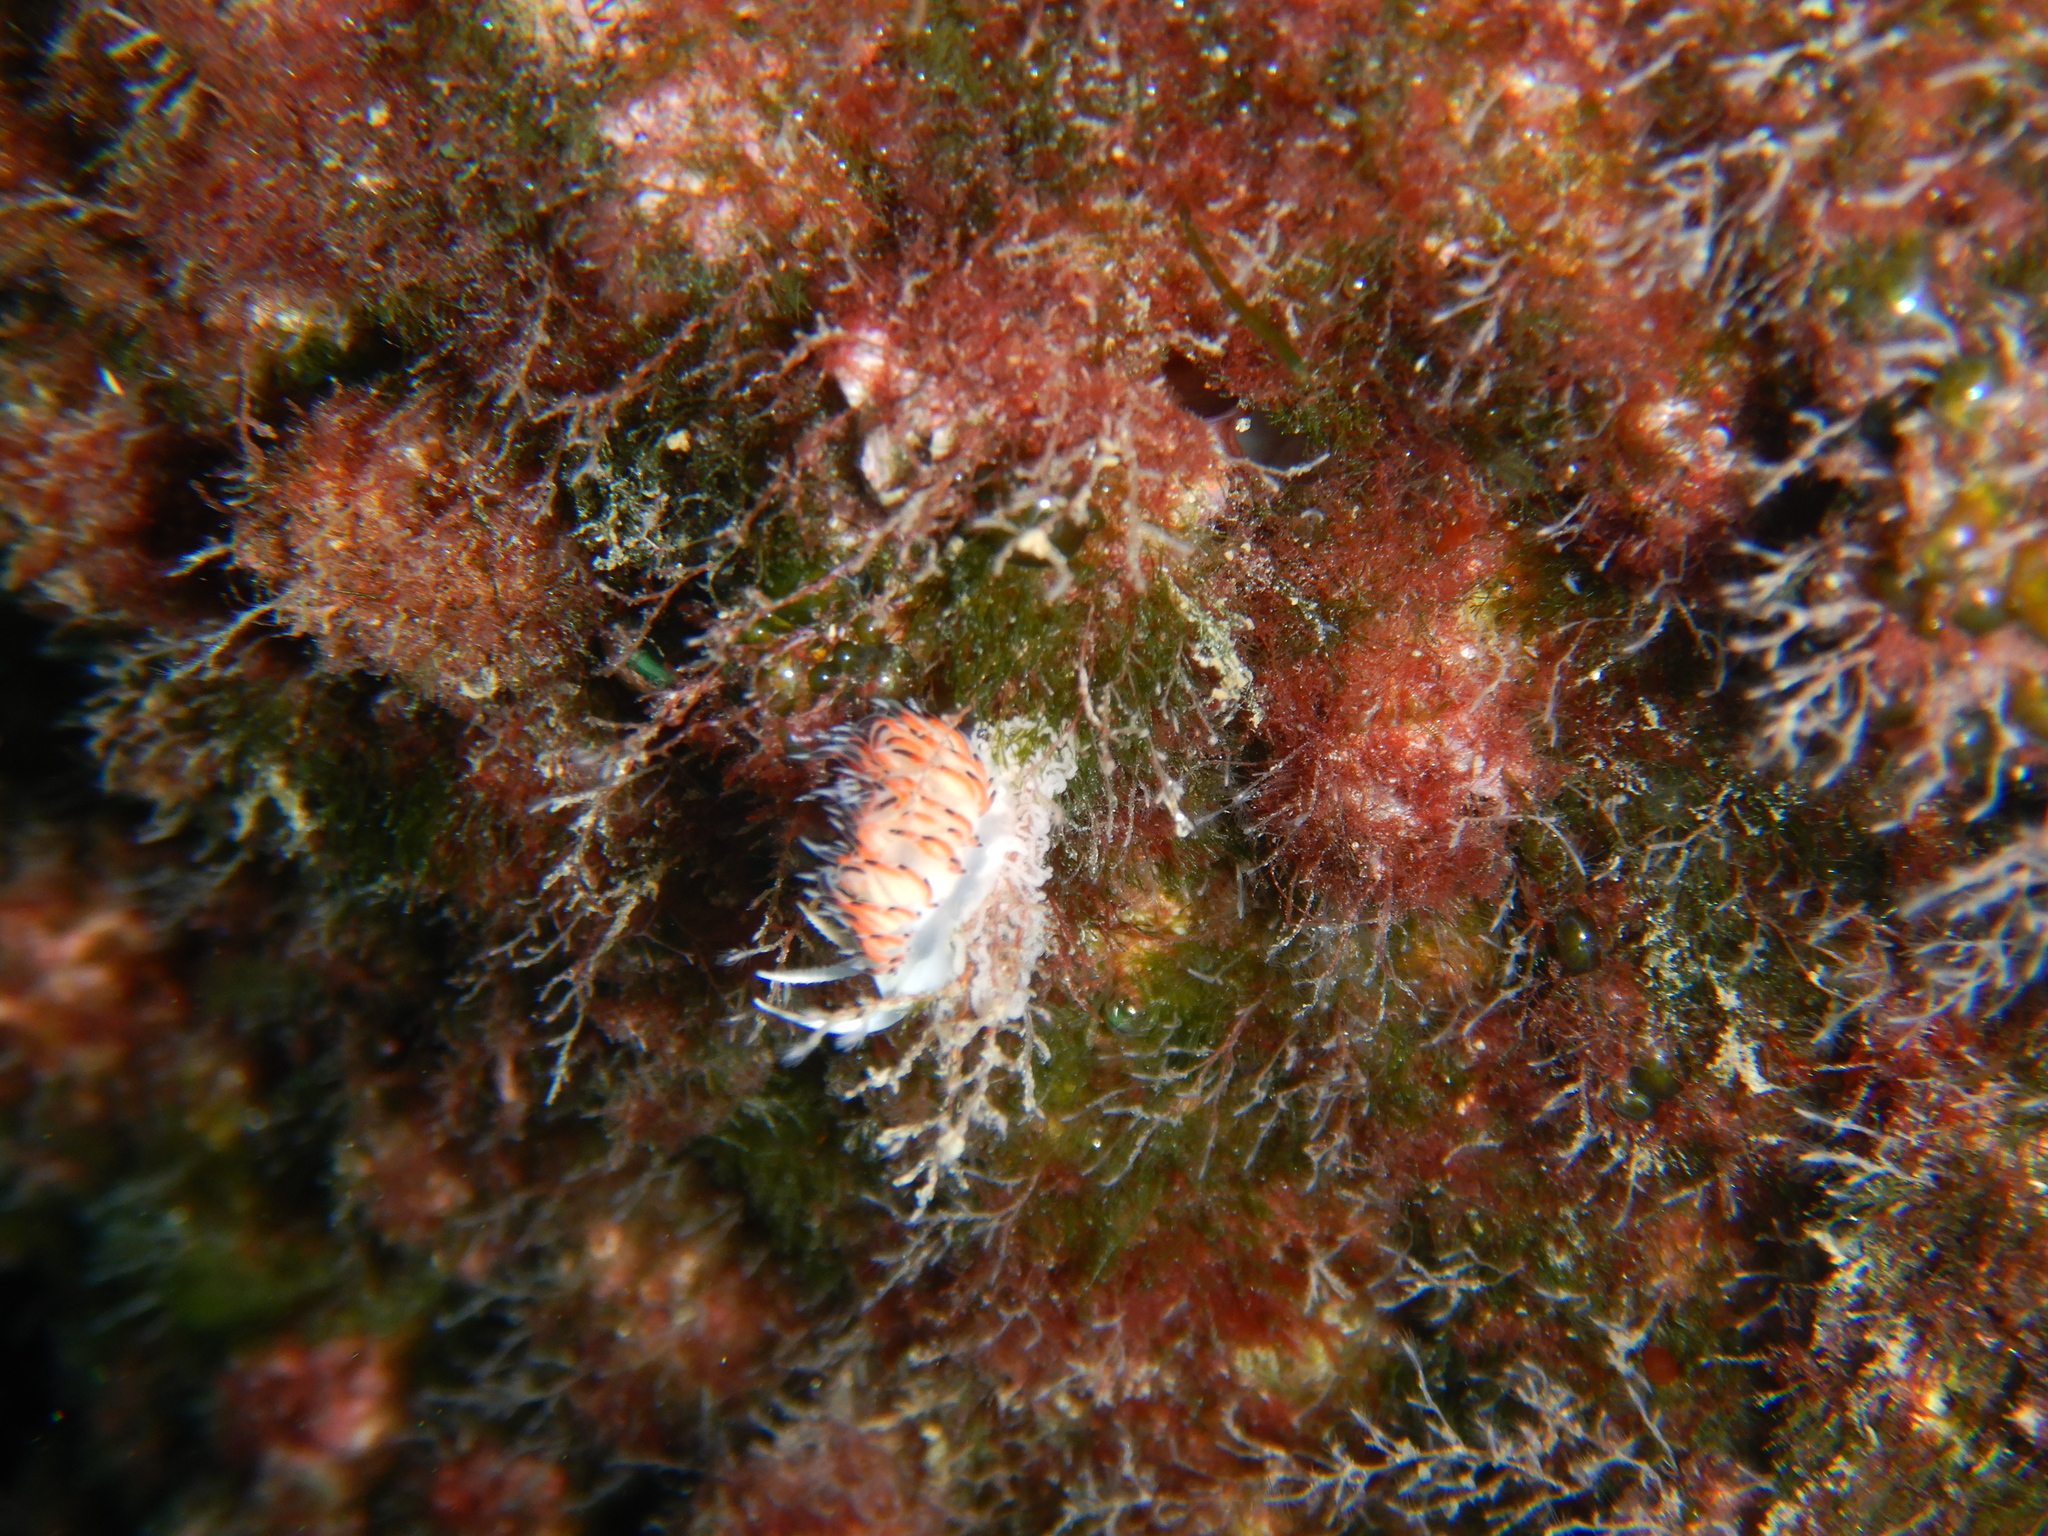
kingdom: Animalia
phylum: Mollusca
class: Gastropoda
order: Nudibranchia
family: Facelinidae
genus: Caloria
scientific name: Caloria quatrefagesi
